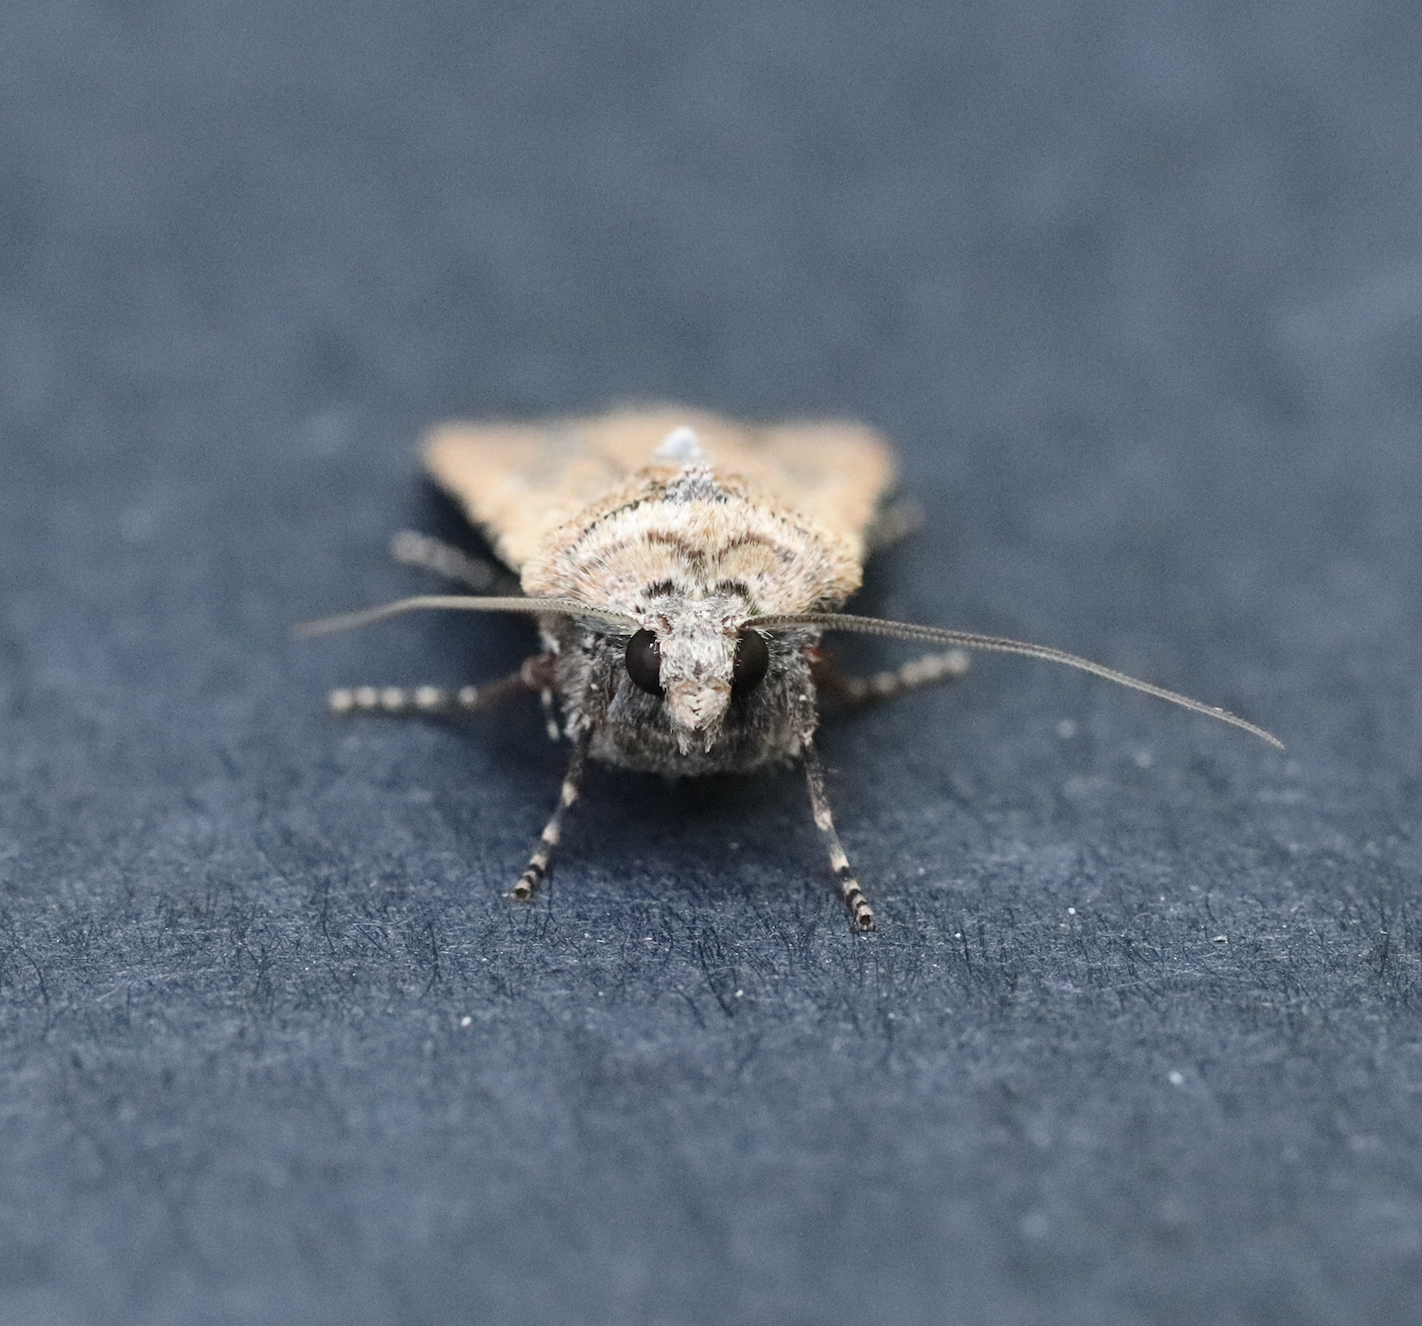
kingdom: Animalia
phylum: Arthropoda
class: Insecta
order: Lepidoptera
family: Noctuidae
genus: Euxoa
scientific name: Euxoa ochrogaster
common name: Red-backed cutworm moth
